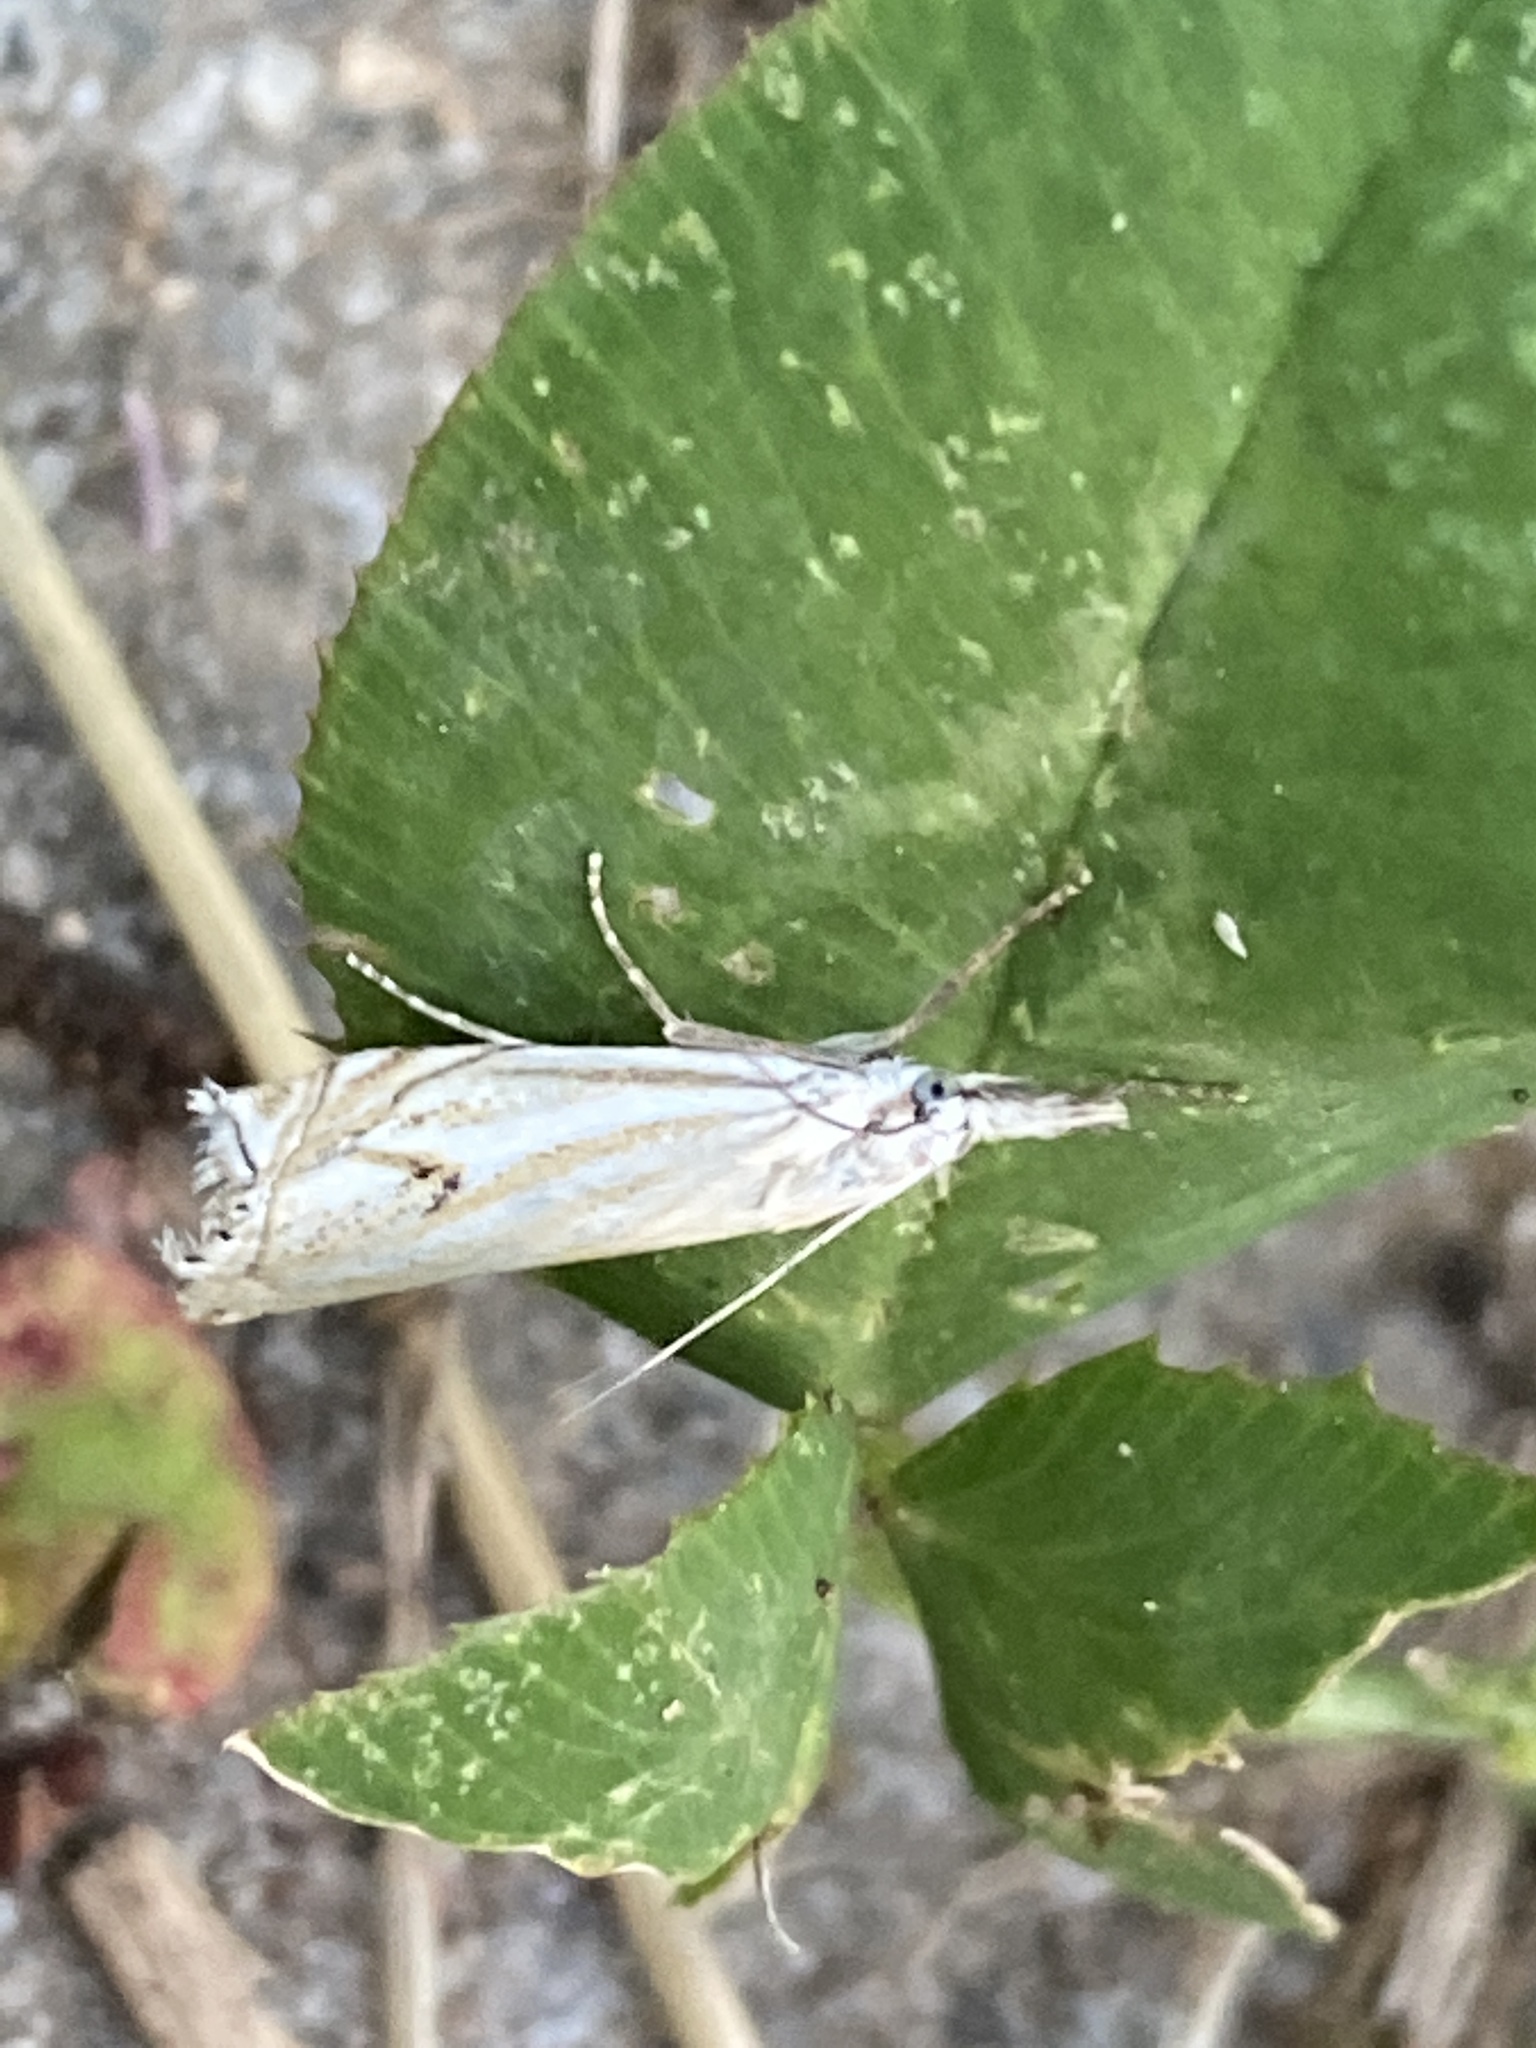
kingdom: Animalia
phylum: Arthropoda
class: Insecta
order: Lepidoptera
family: Crambidae
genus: Crambus
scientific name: Crambus nemorella
